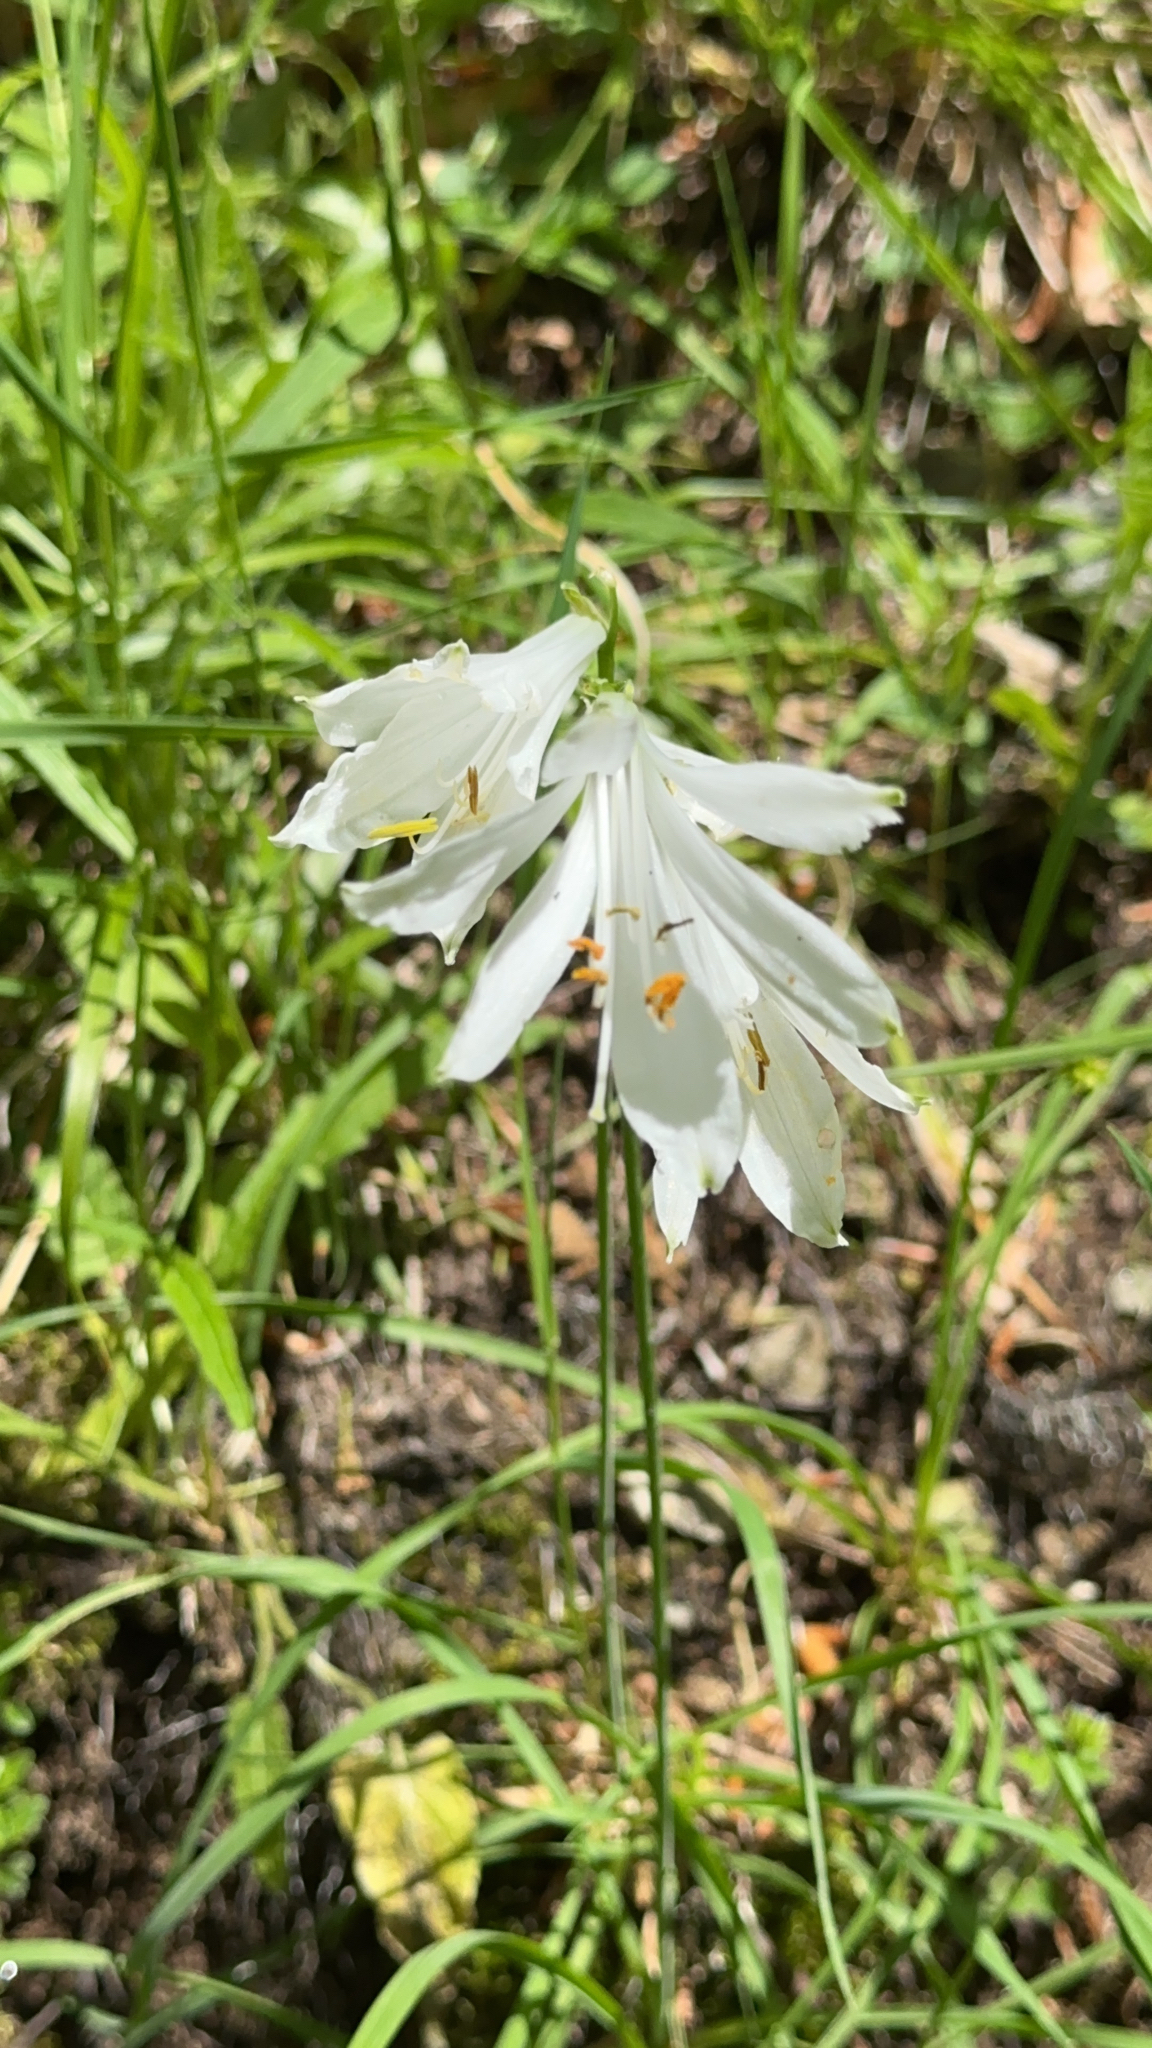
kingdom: Plantae
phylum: Tracheophyta
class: Liliopsida
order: Asparagales
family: Asparagaceae
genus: Paradisea
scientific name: Paradisea liliastrum
